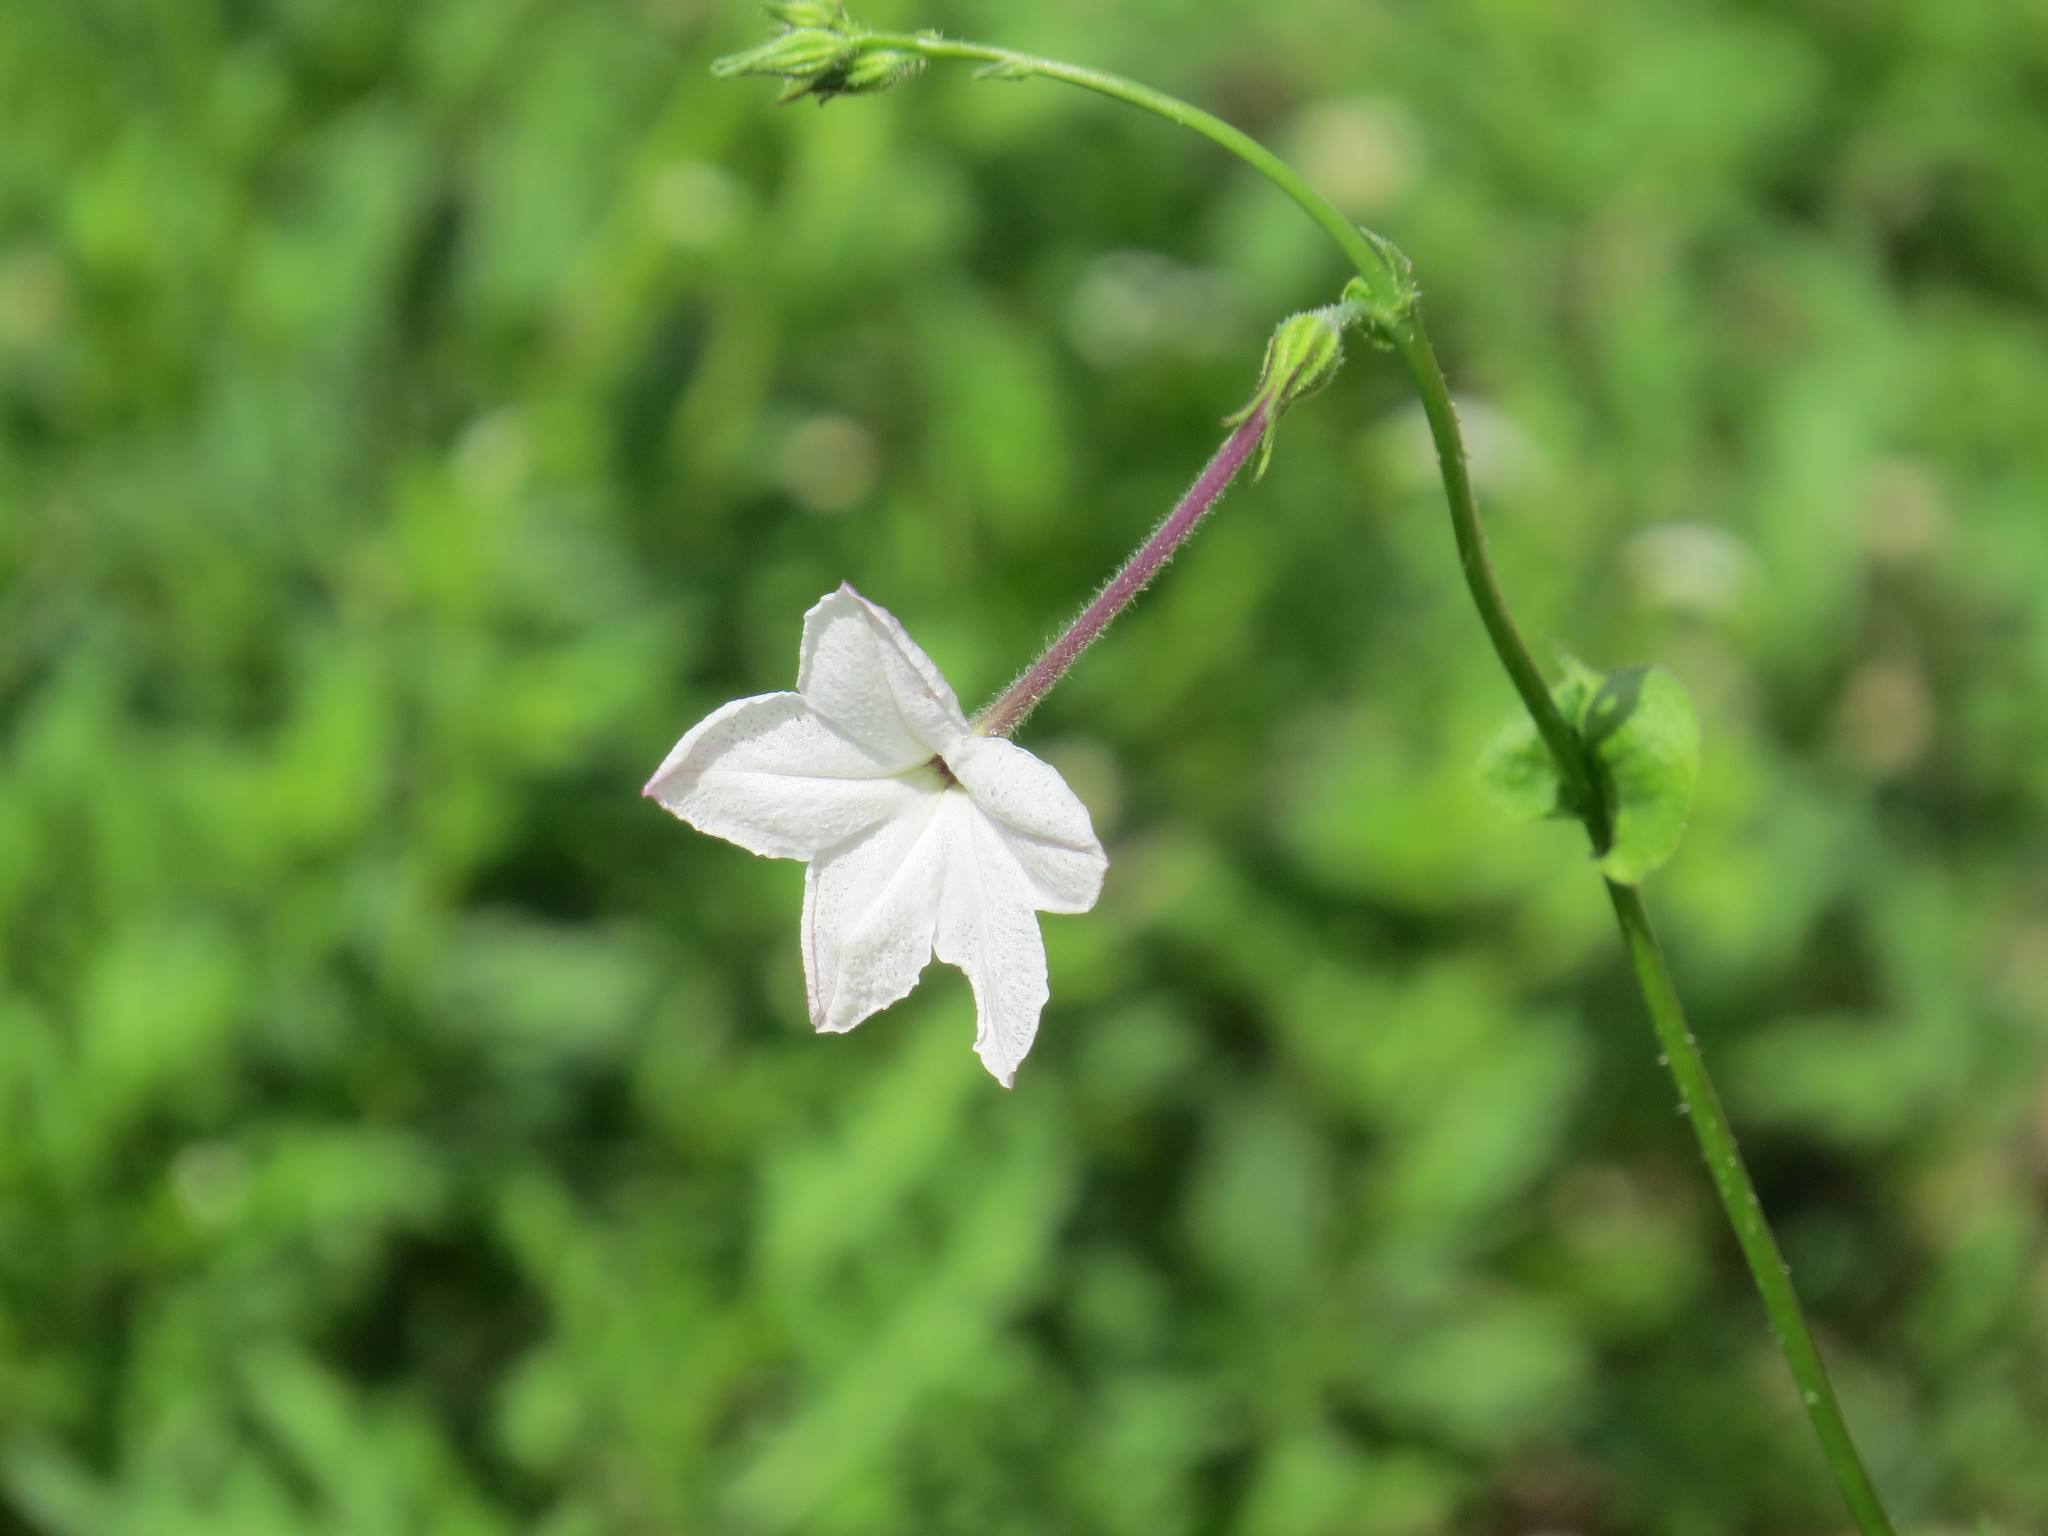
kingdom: Plantae
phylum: Tracheophyta
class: Magnoliopsida
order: Solanales
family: Solanaceae
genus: Nicotiana
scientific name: Nicotiana repanda
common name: Fiddle-leaf tobacco
